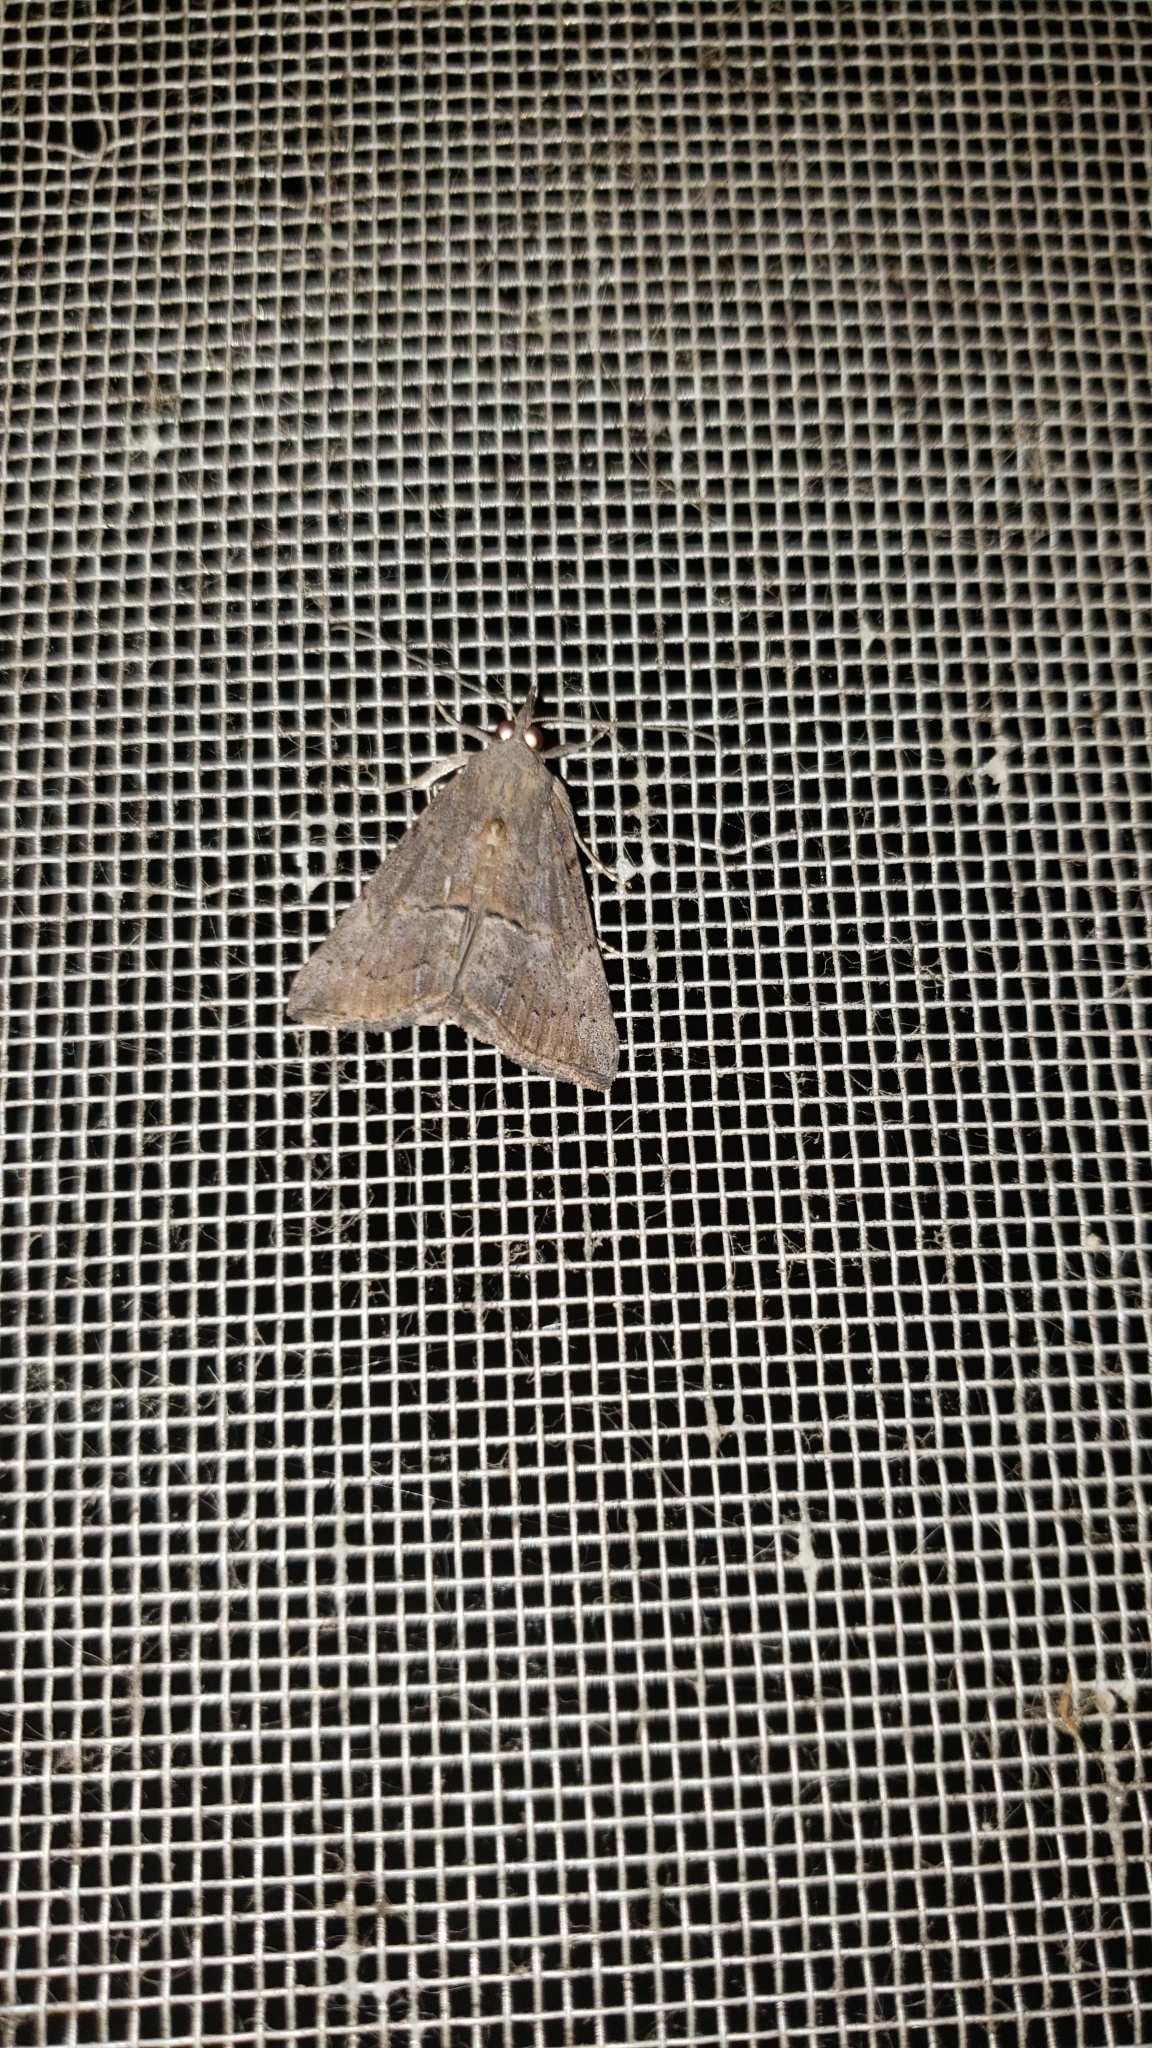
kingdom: Animalia
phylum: Arthropoda
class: Insecta
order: Lepidoptera
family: Erebidae
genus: Hypena
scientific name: Hypena scabra
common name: Green cloverworm
